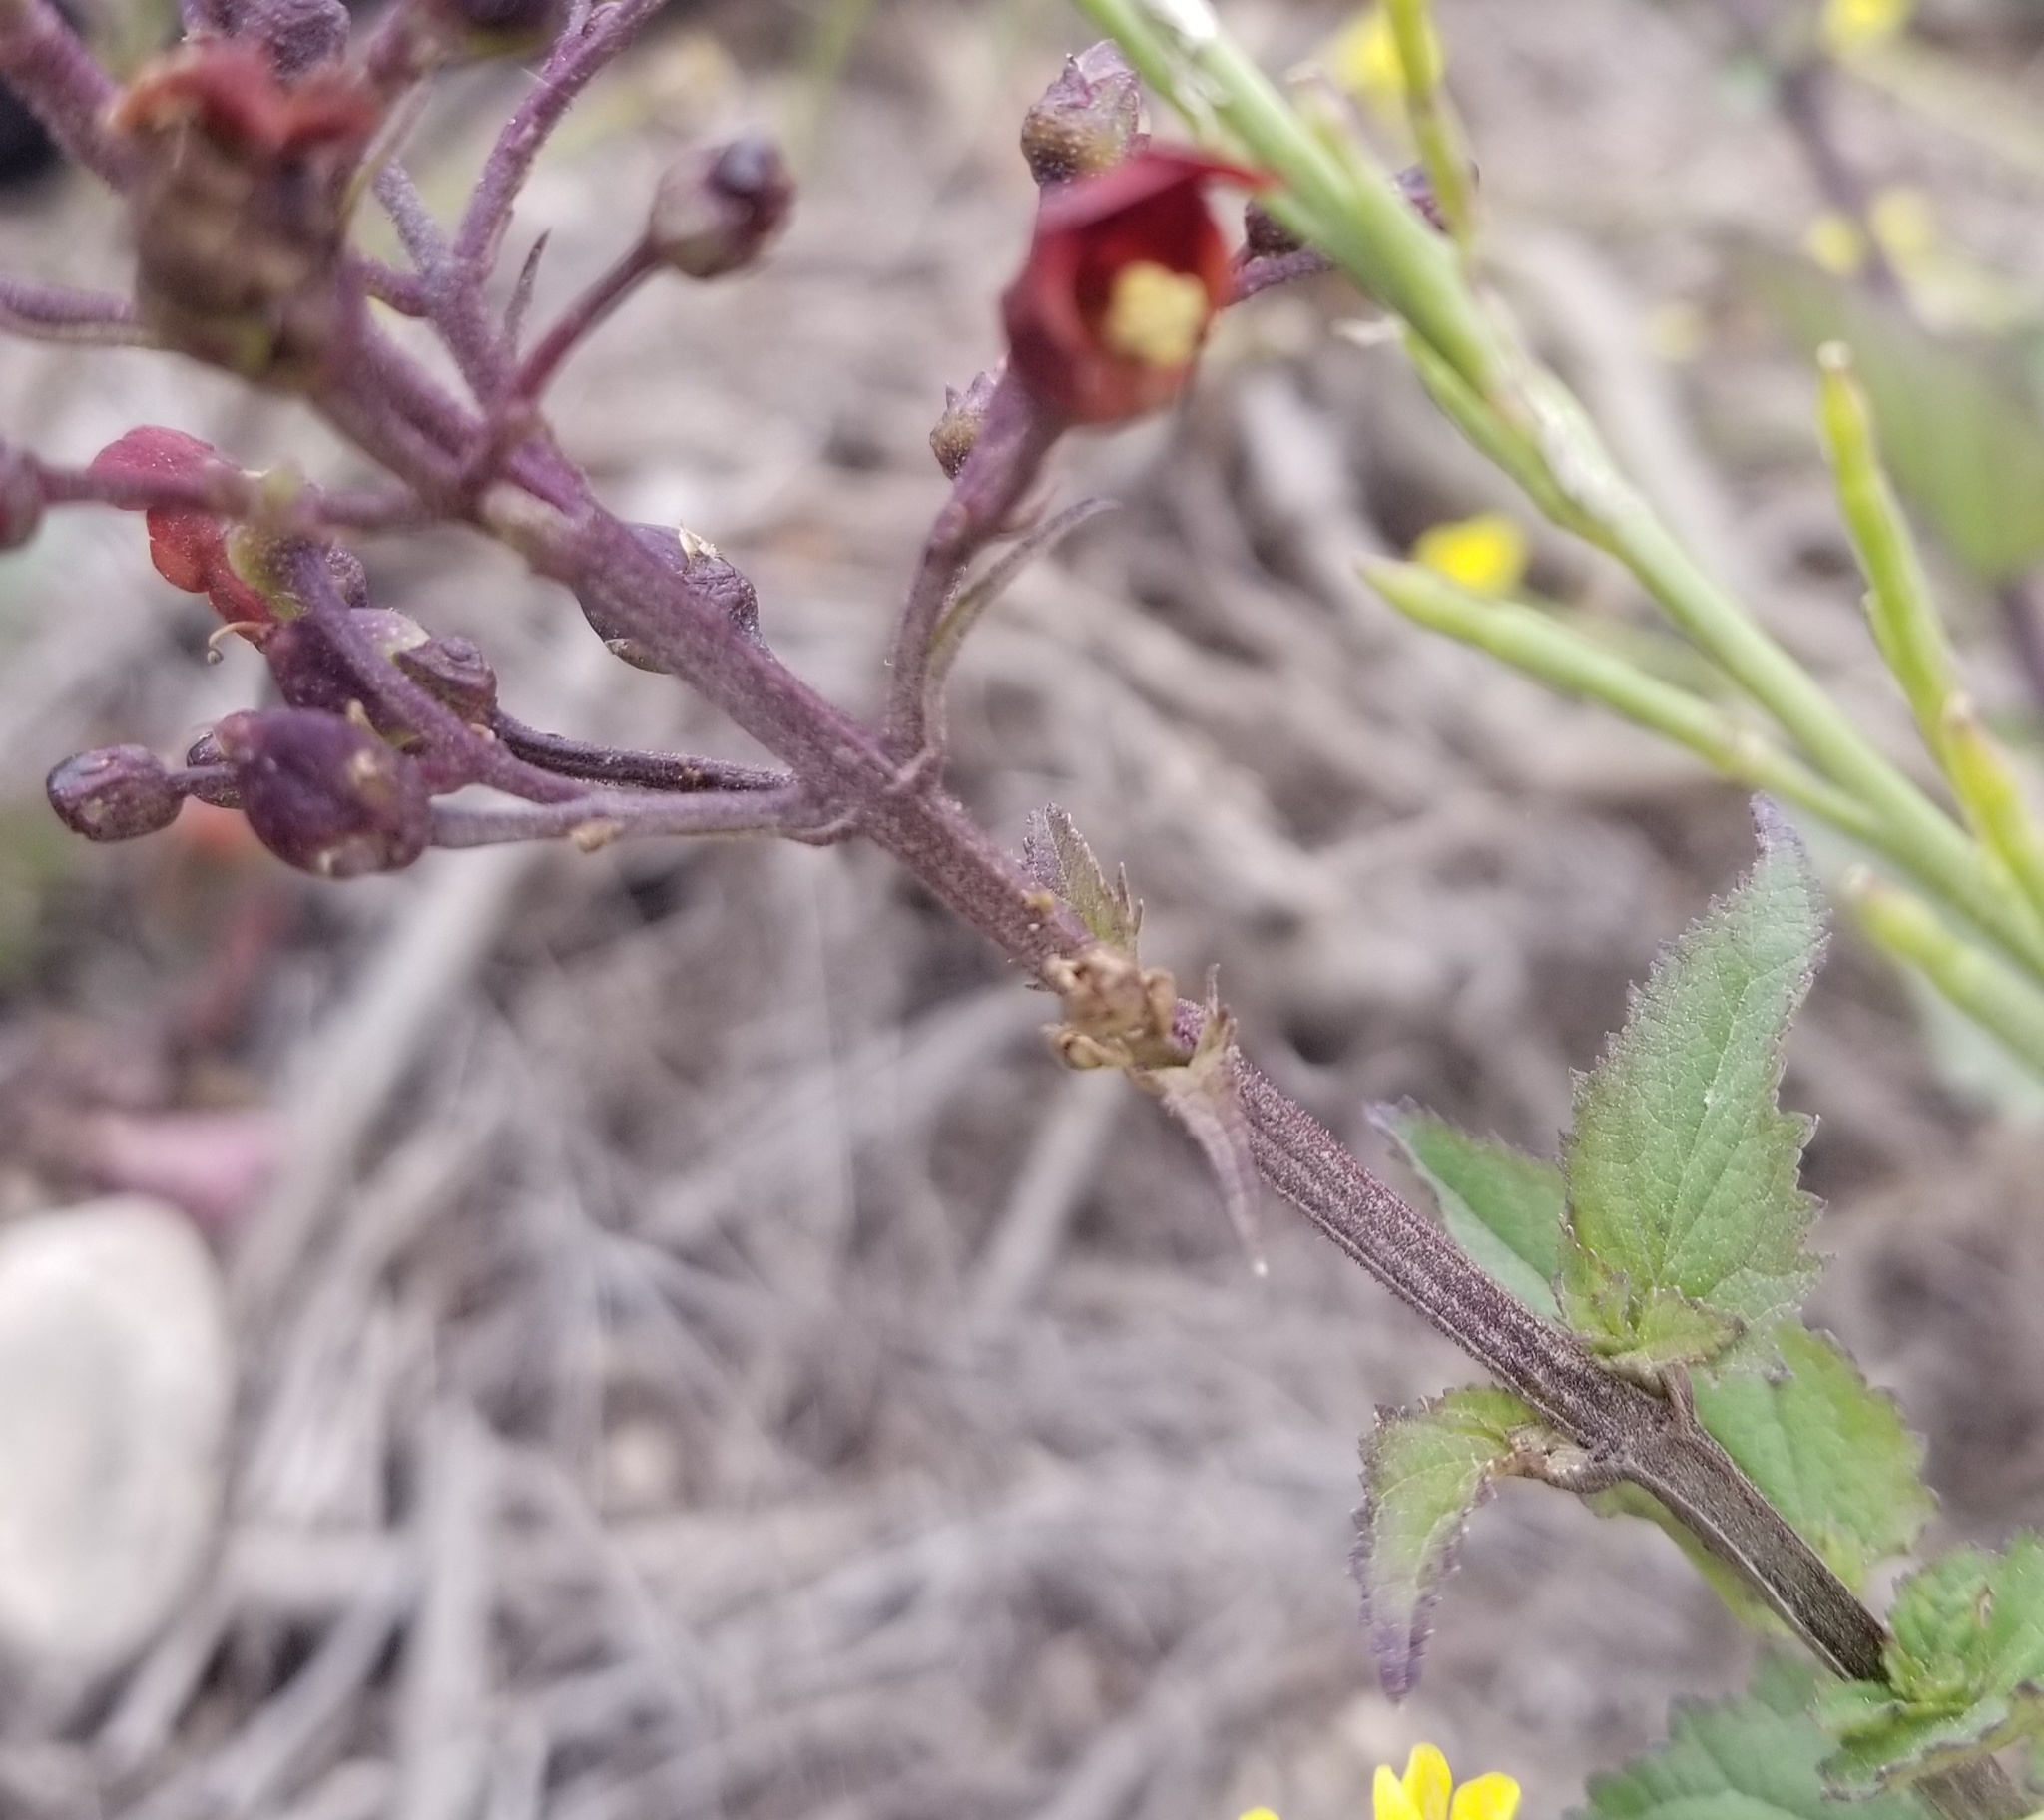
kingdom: Plantae
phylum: Tracheophyta
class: Magnoliopsida
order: Lamiales
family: Scrophulariaceae
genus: Scrophularia
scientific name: Scrophularia californica
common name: California figwort
